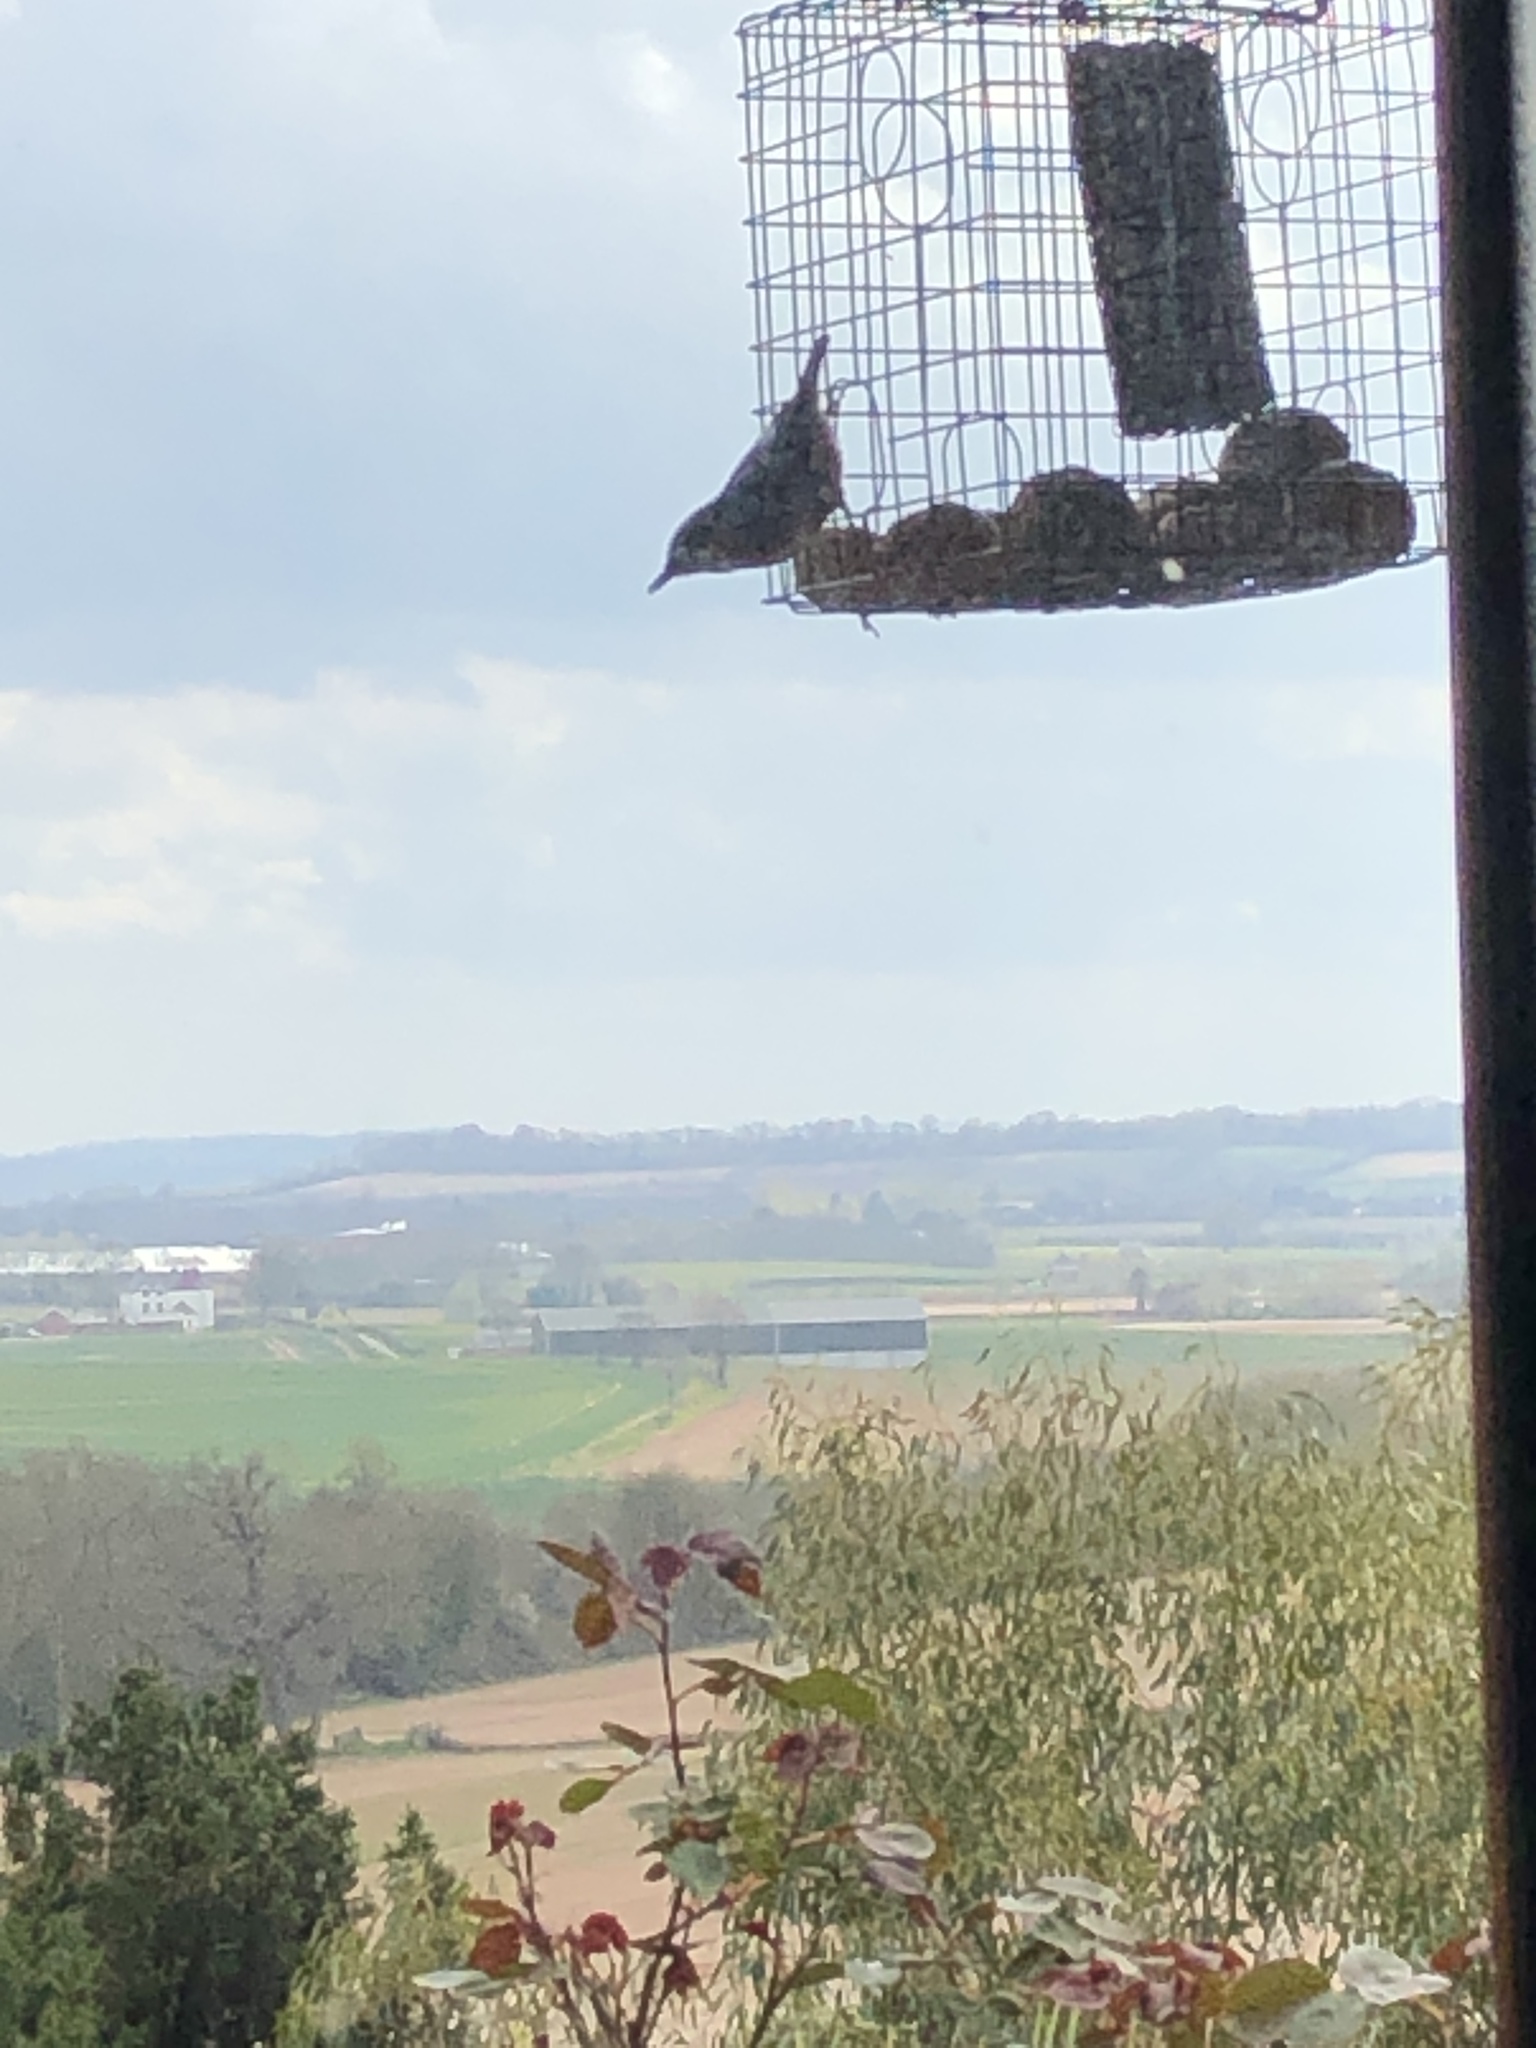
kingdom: Animalia
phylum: Chordata
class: Aves
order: Passeriformes
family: Sittidae
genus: Sitta
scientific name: Sitta europaea
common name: Eurasian nuthatch
